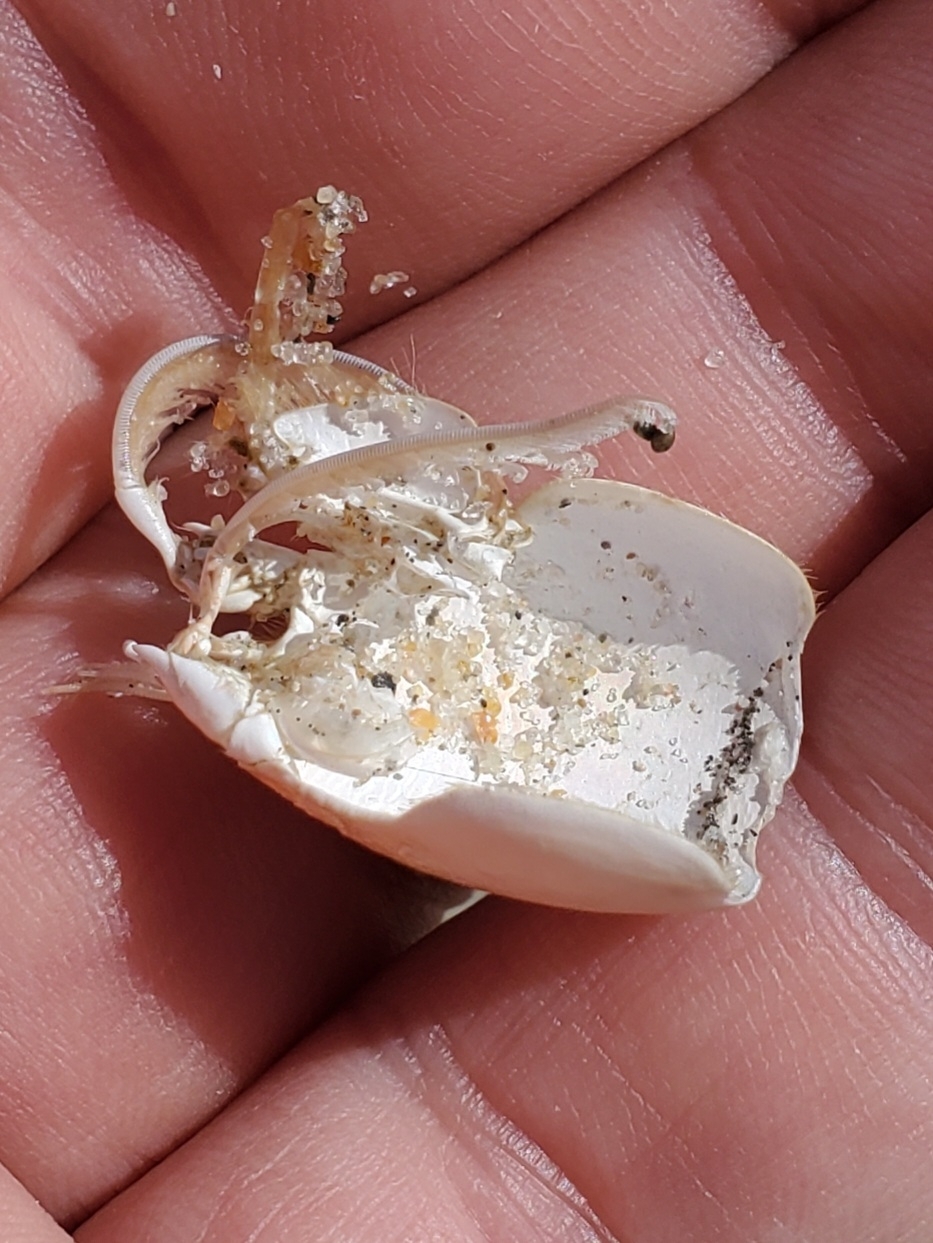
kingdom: Animalia
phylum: Arthropoda
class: Malacostraca
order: Decapoda
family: Hippidae
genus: Emerita
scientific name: Emerita talpoida
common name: Atlantic sand crab
